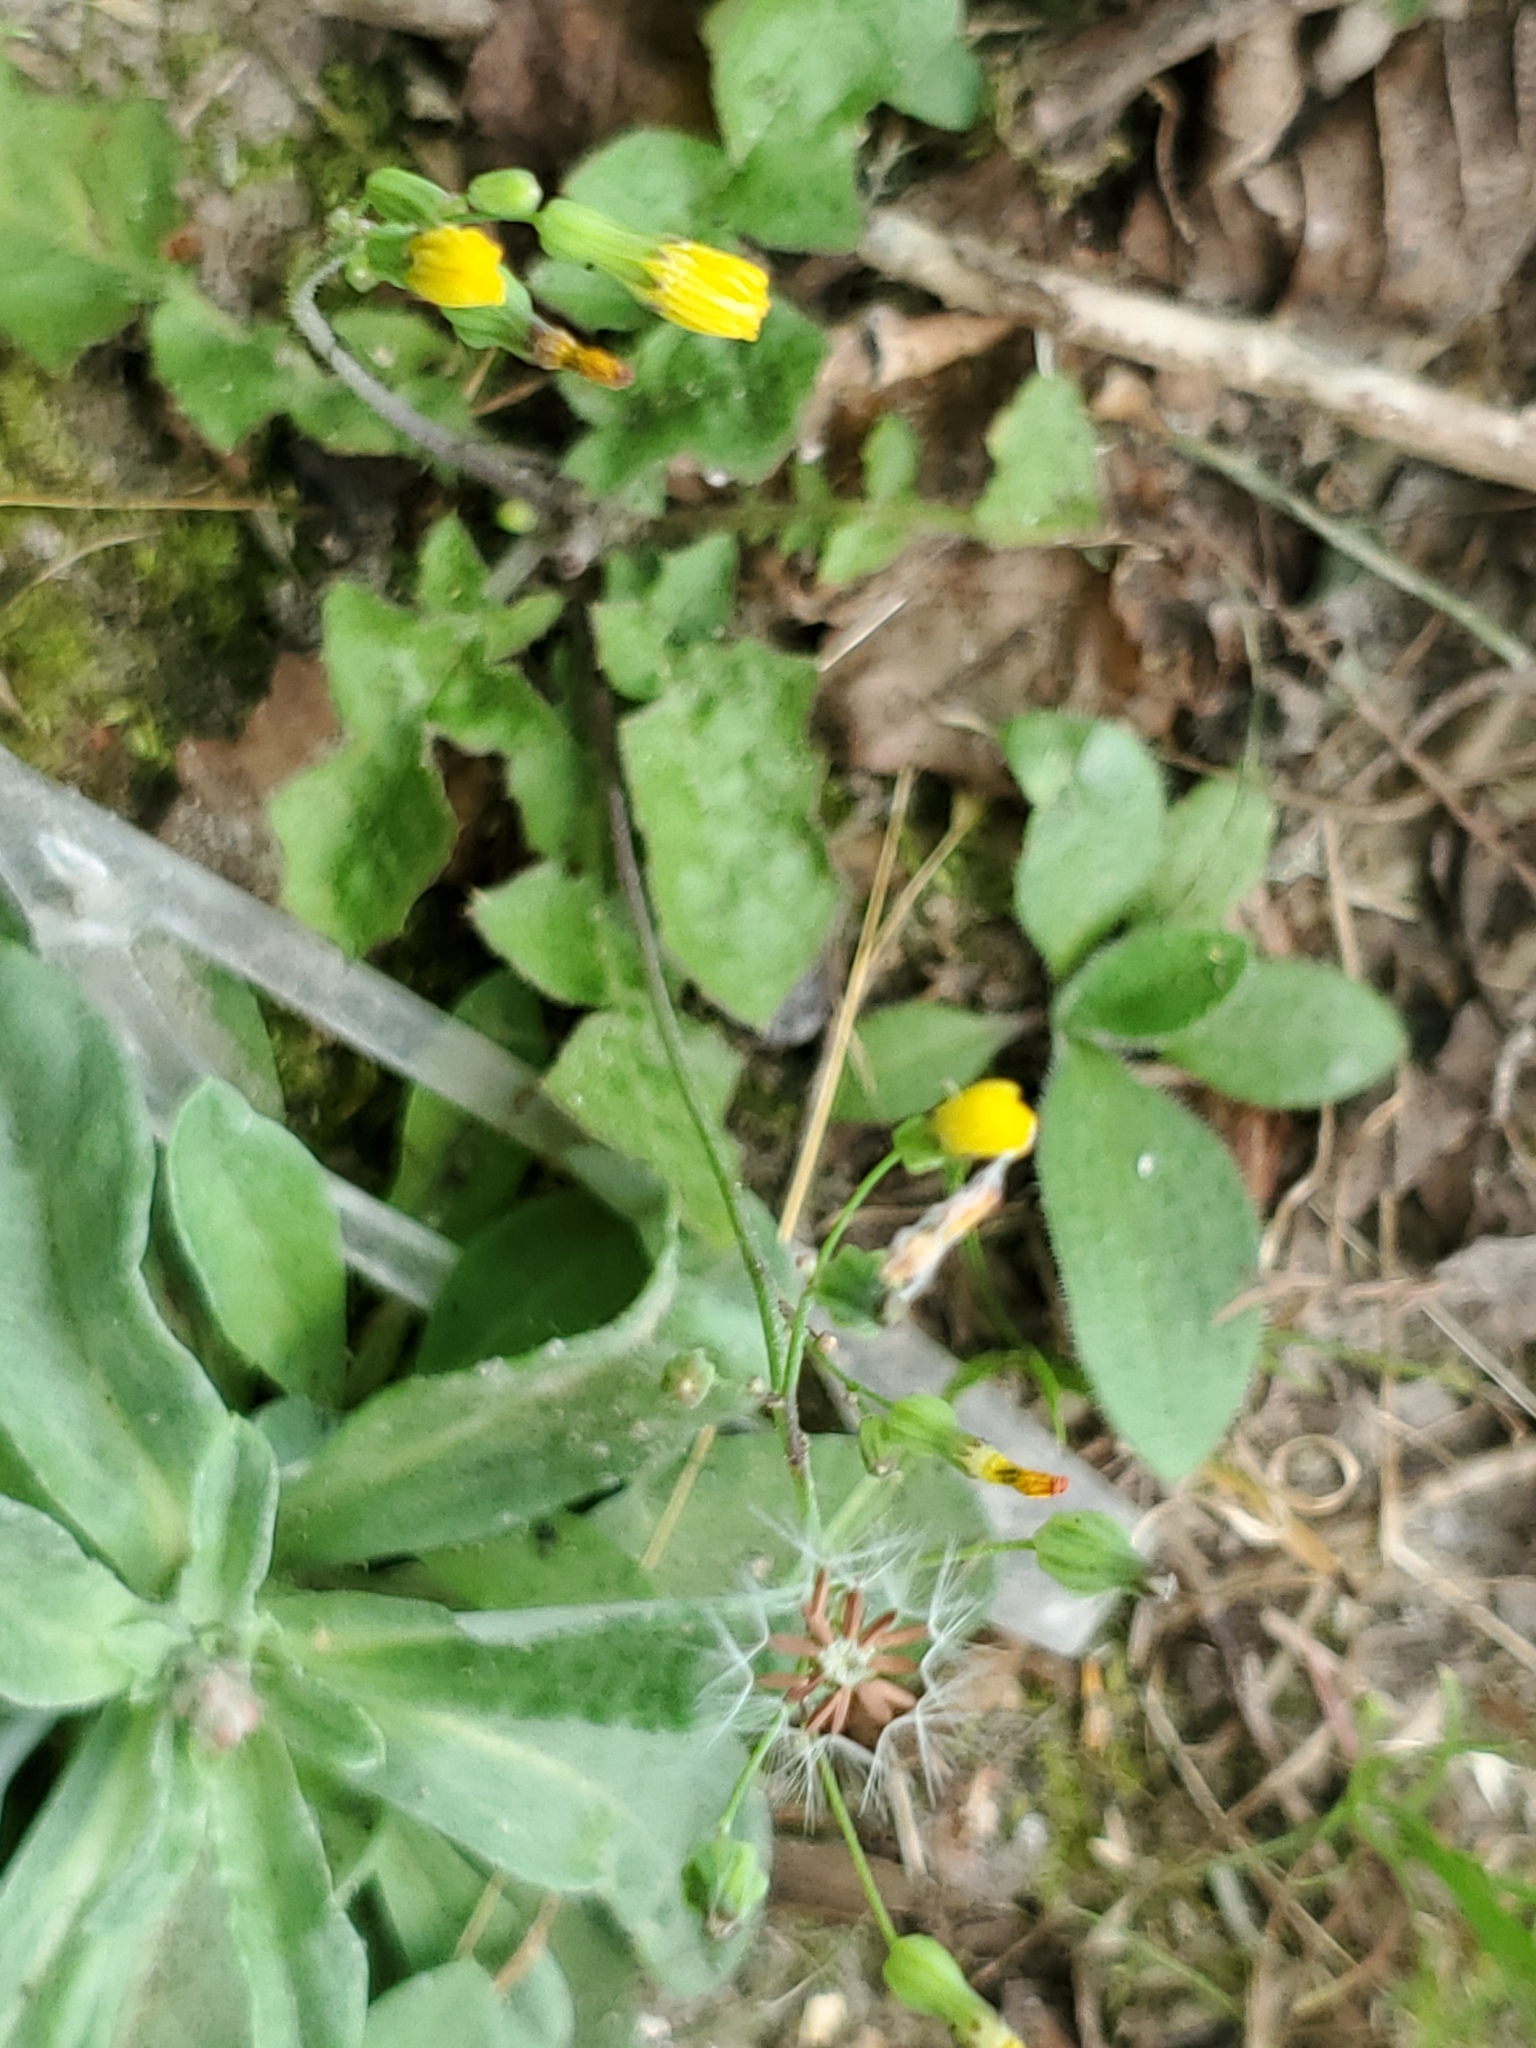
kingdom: Plantae
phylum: Tracheophyta
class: Magnoliopsida
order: Asterales
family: Asteraceae
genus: Youngia
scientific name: Youngia japonica
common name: Oriental false hawksbeard
